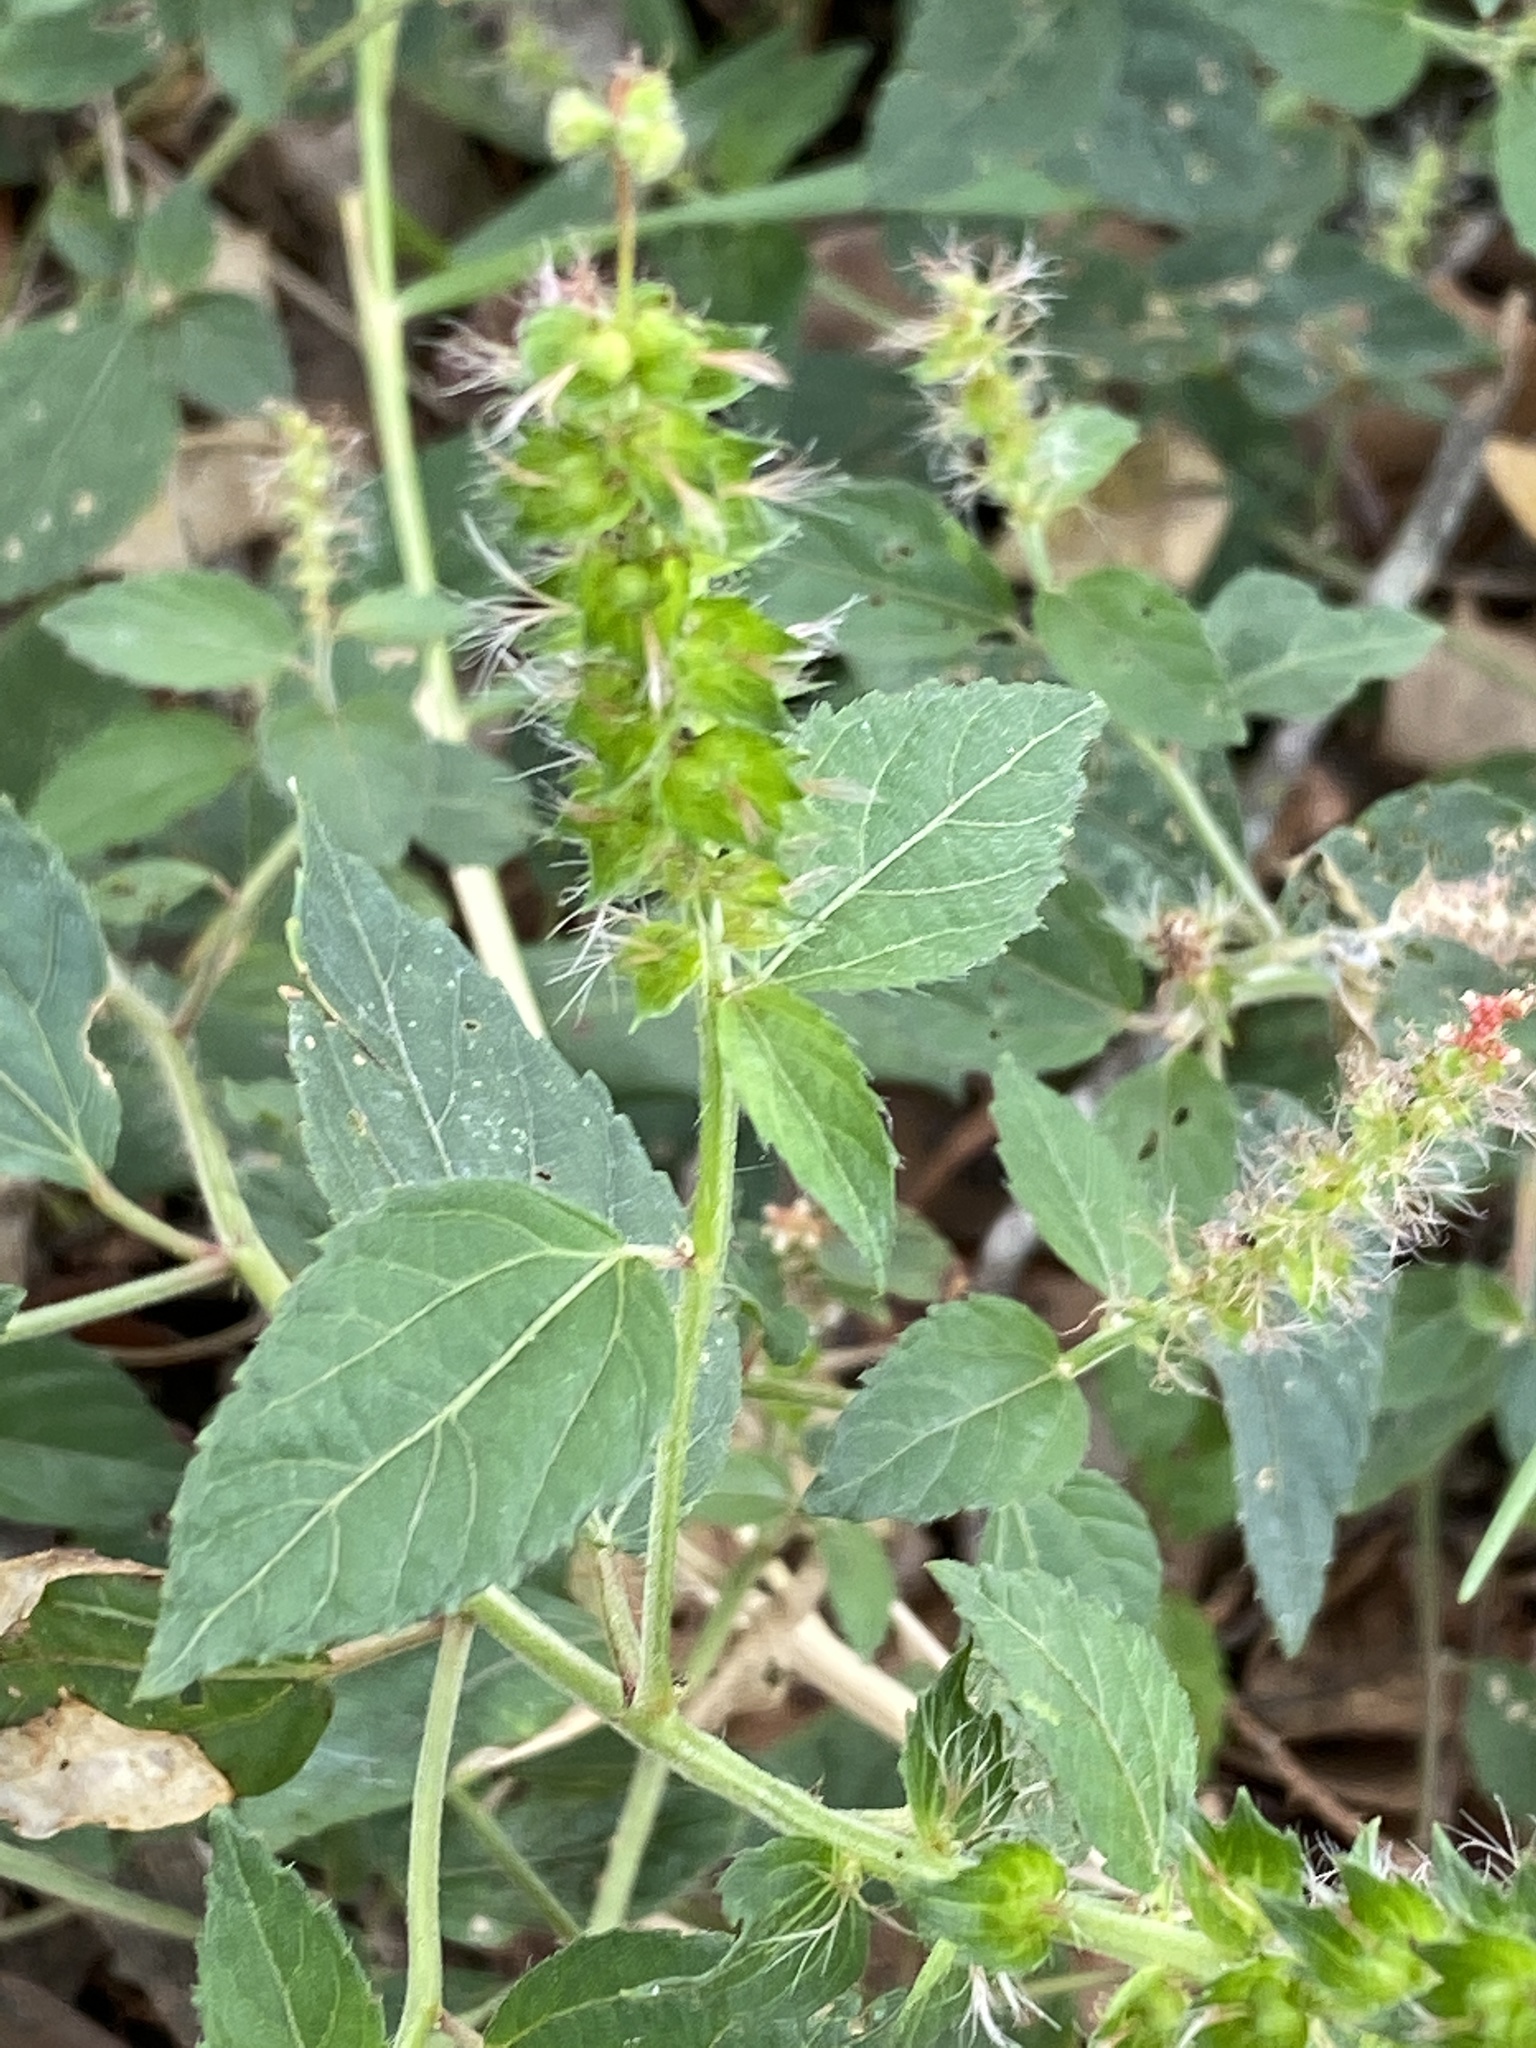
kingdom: Plantae
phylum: Tracheophyta
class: Magnoliopsida
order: Malpighiales
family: Euphorbiaceae
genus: Acalypha
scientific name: Acalypha phleoides
